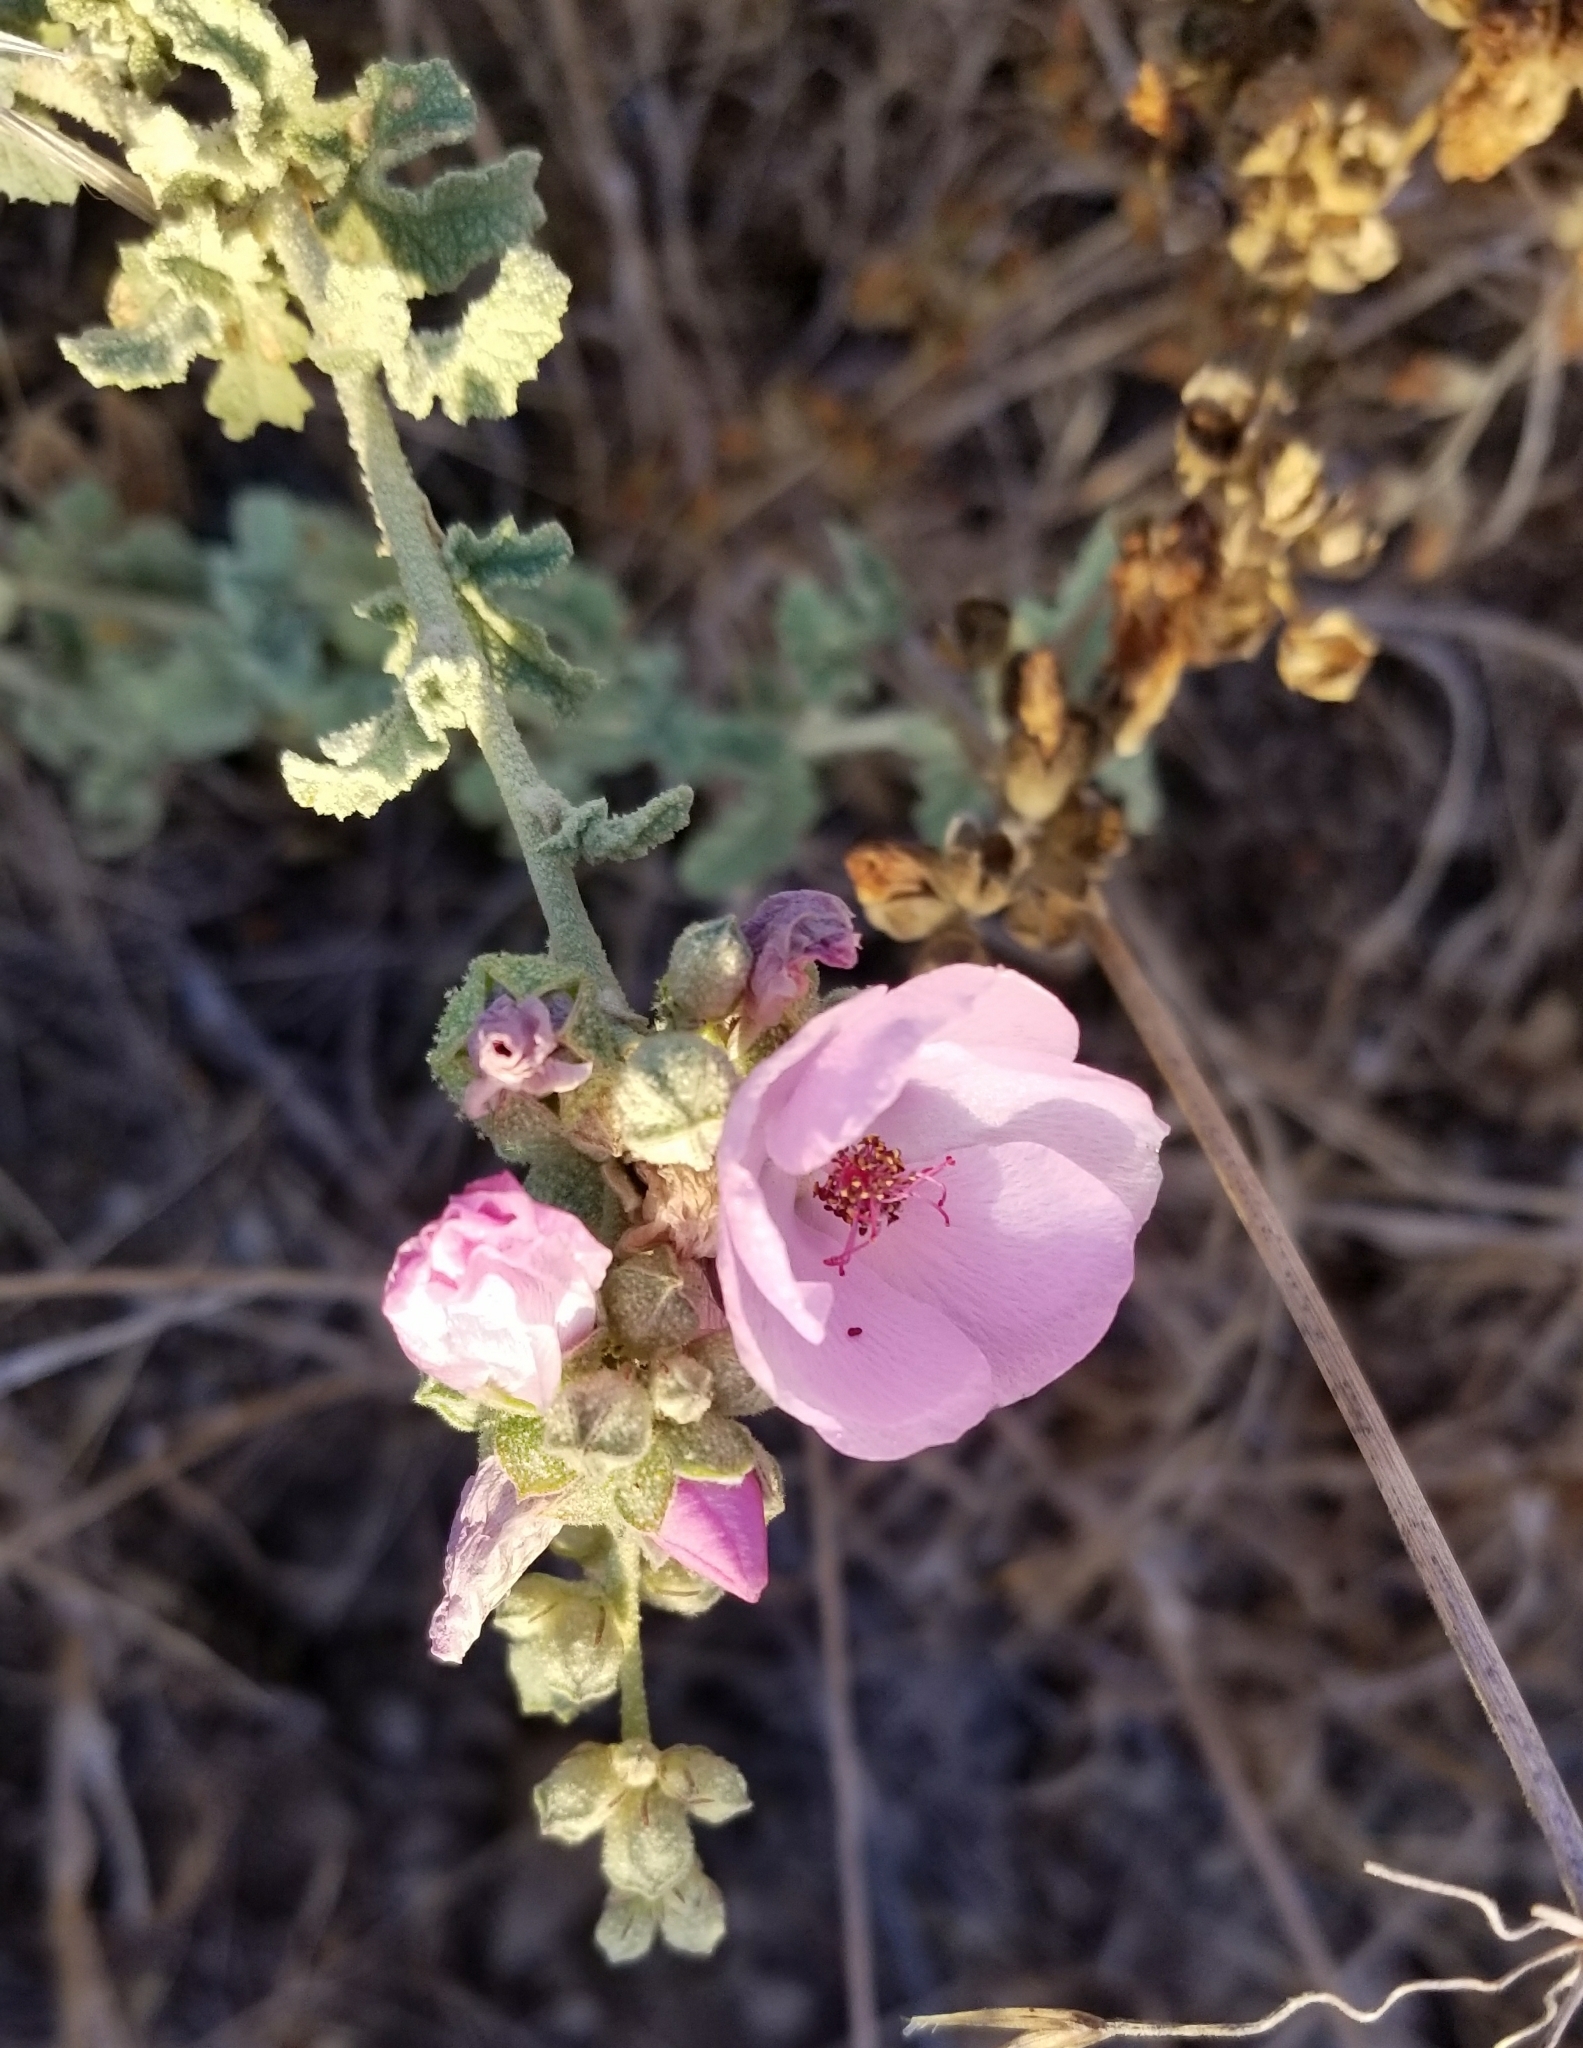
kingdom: Plantae
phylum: Tracheophyta
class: Magnoliopsida
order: Malvales
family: Malvaceae
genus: Malacothamnus
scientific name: Malacothamnus fasciculatus
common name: Sant cruz island bush-mallow
